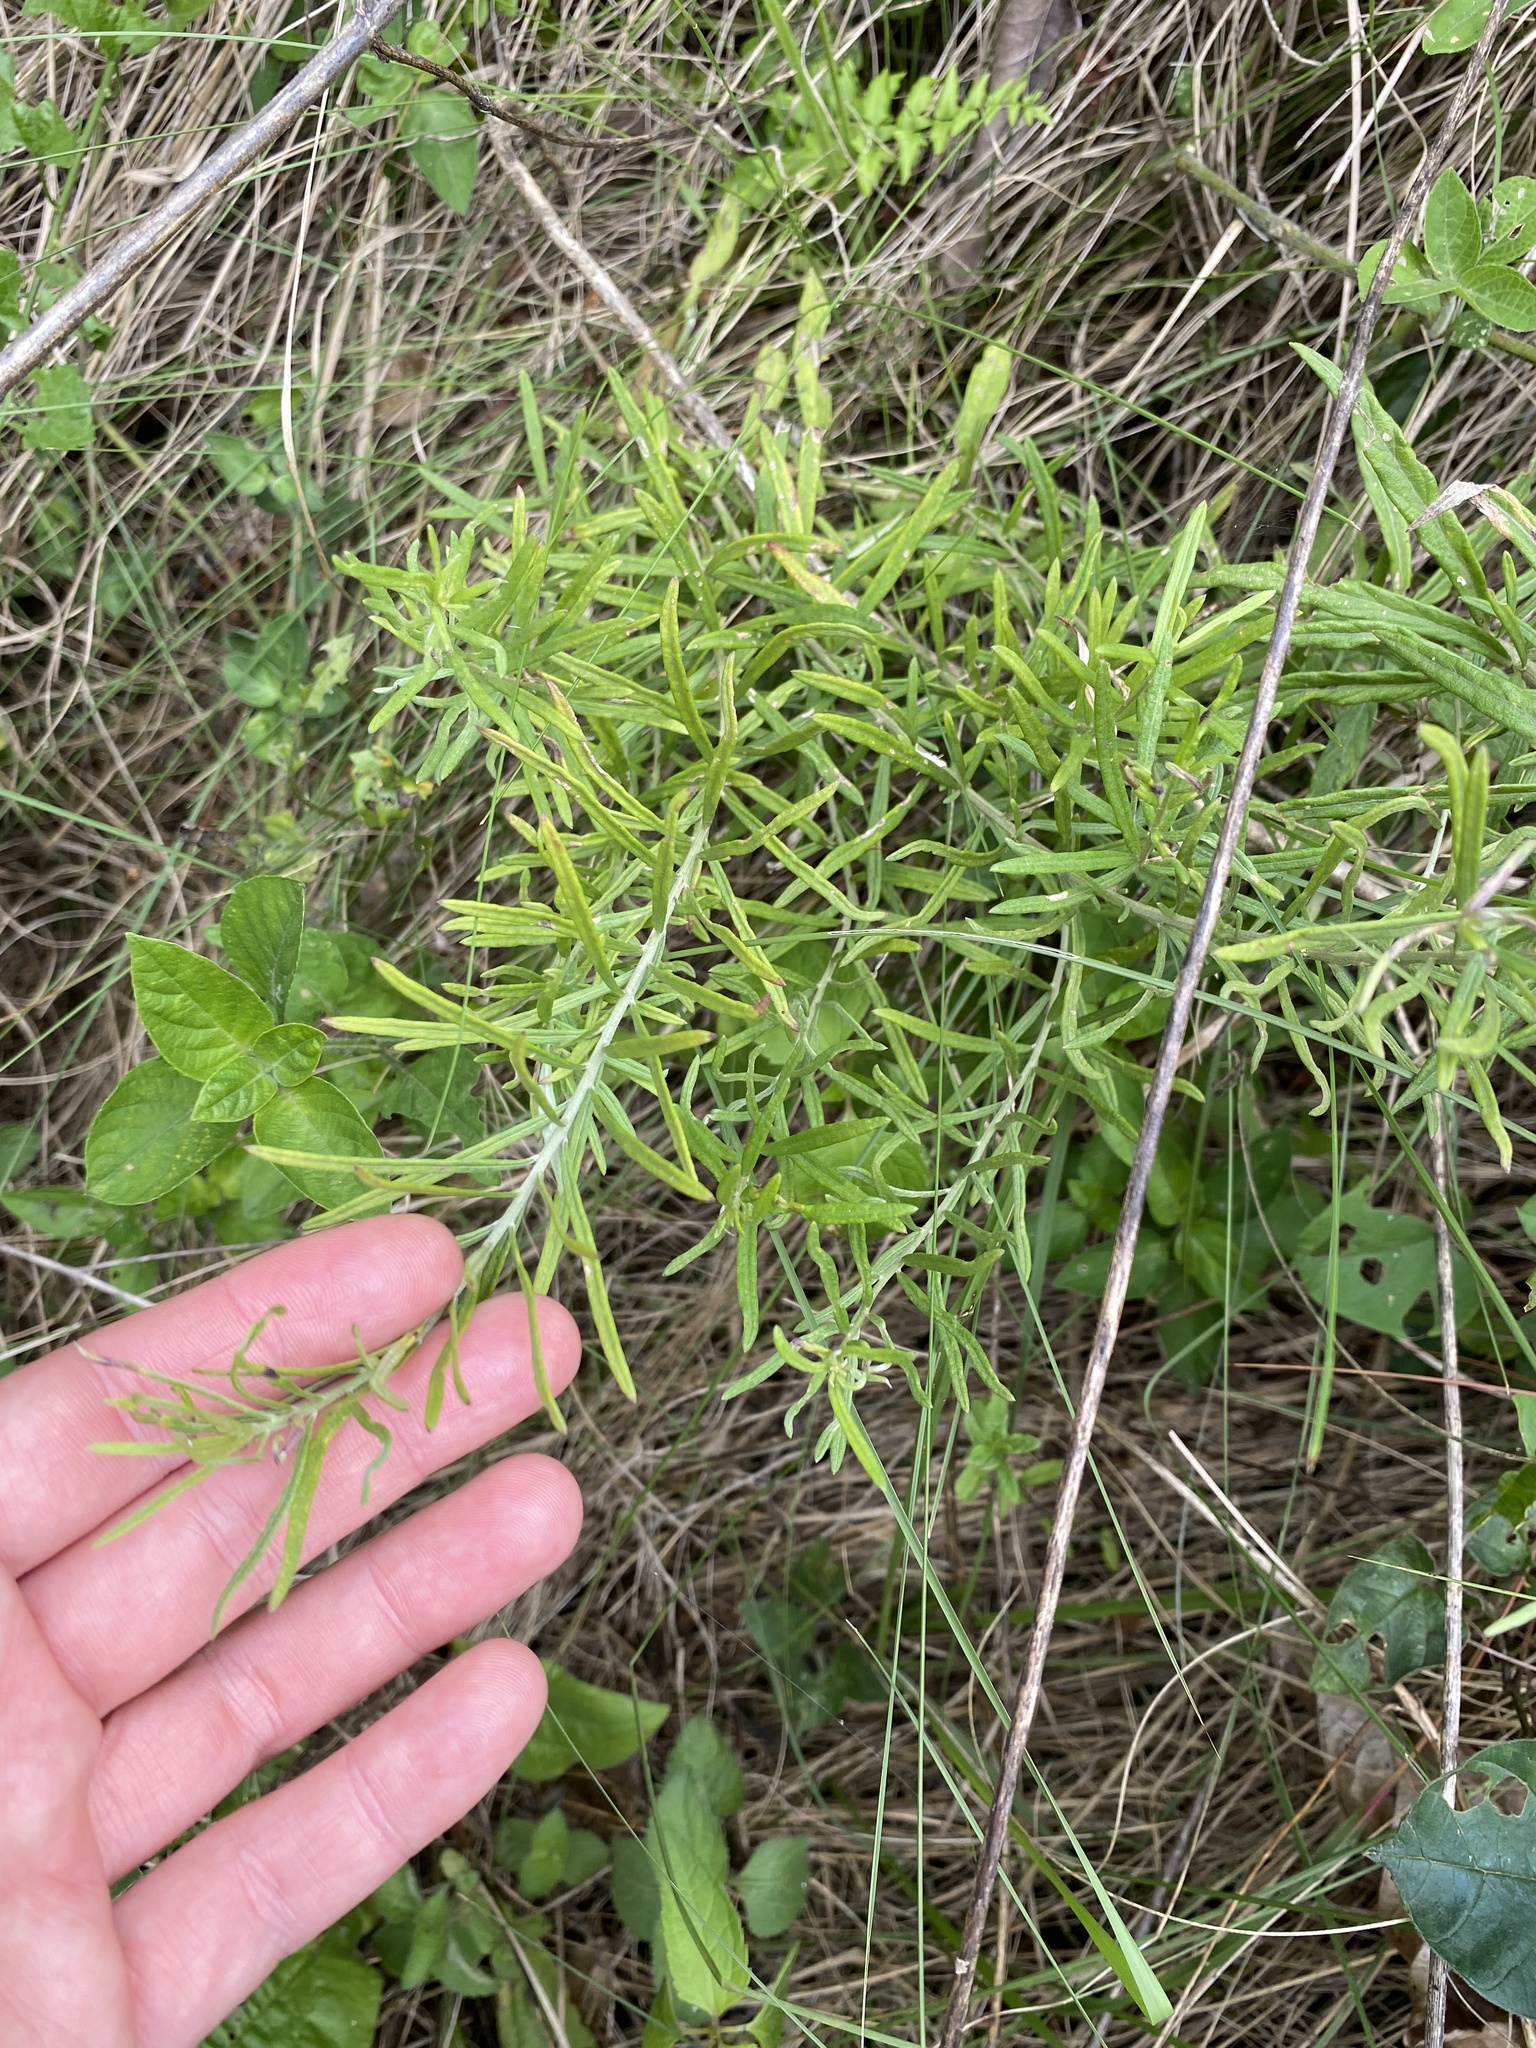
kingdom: Plantae
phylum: Tracheophyta
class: Liliopsida
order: Asparagales
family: Asparagaceae
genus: Asparagus
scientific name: Asparagus falcatus
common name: Asparagus
